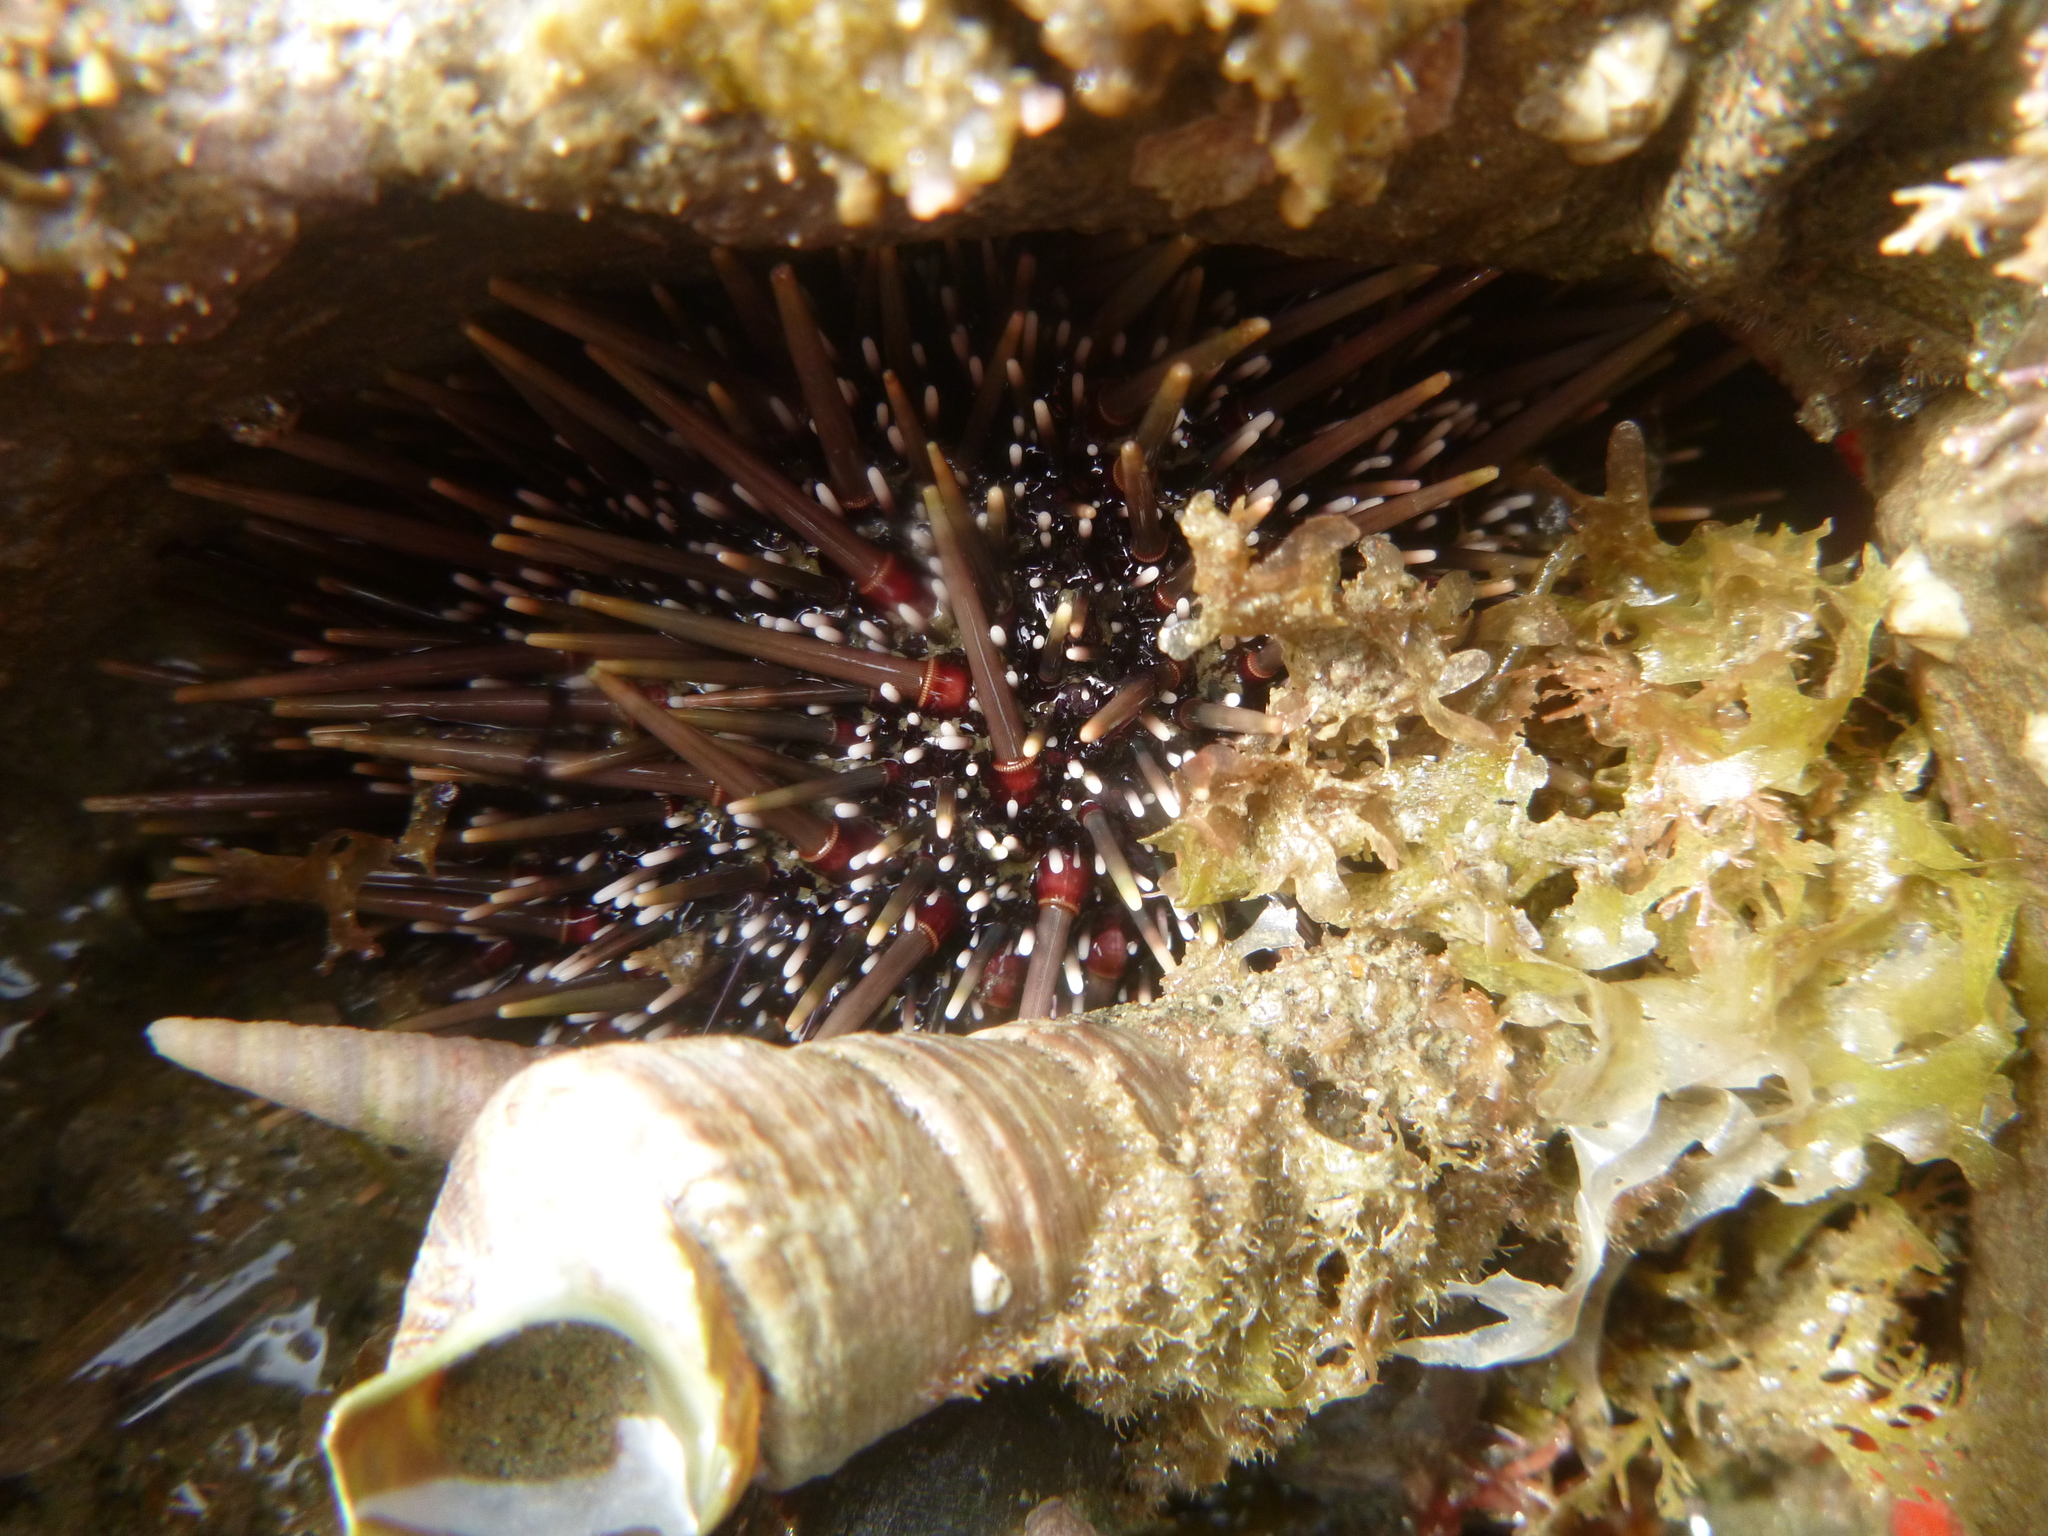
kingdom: Animalia
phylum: Echinodermata
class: Echinoidea
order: Camarodonta
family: Echinometridae
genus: Evechinus
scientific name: Evechinus chloroticus
